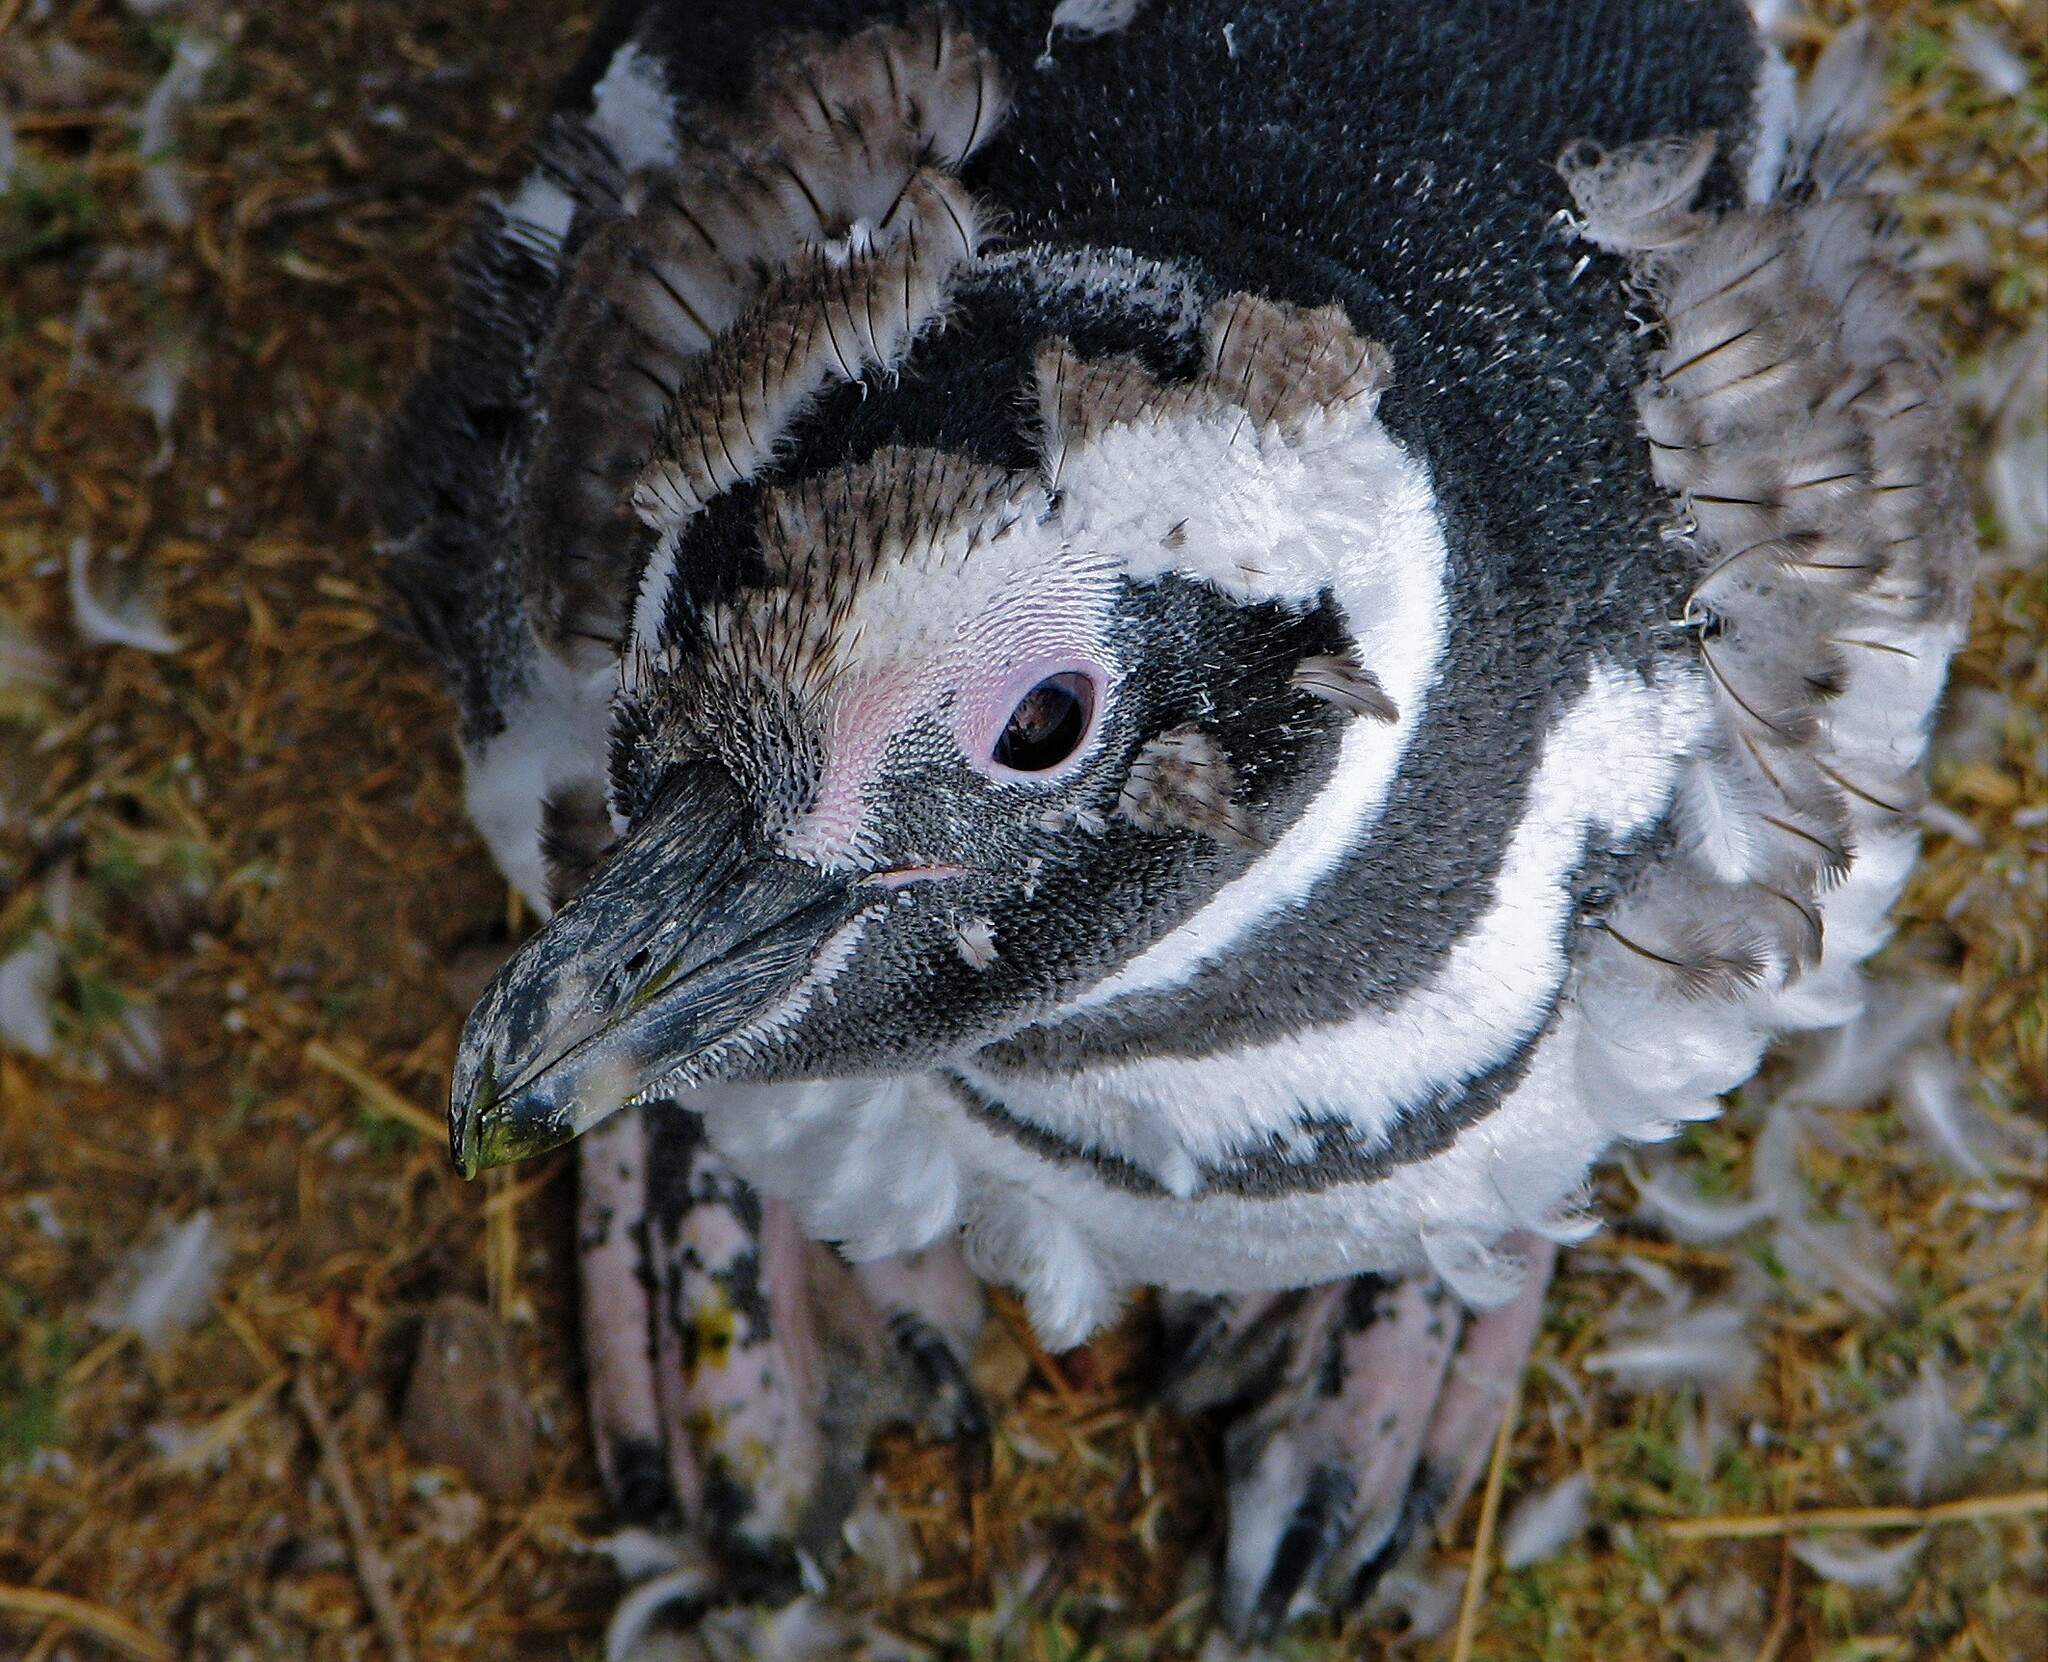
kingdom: Animalia
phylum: Chordata
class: Aves
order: Sphenisciformes
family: Spheniscidae
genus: Spheniscus
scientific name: Spheniscus magellanicus
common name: Magellanic penguin
